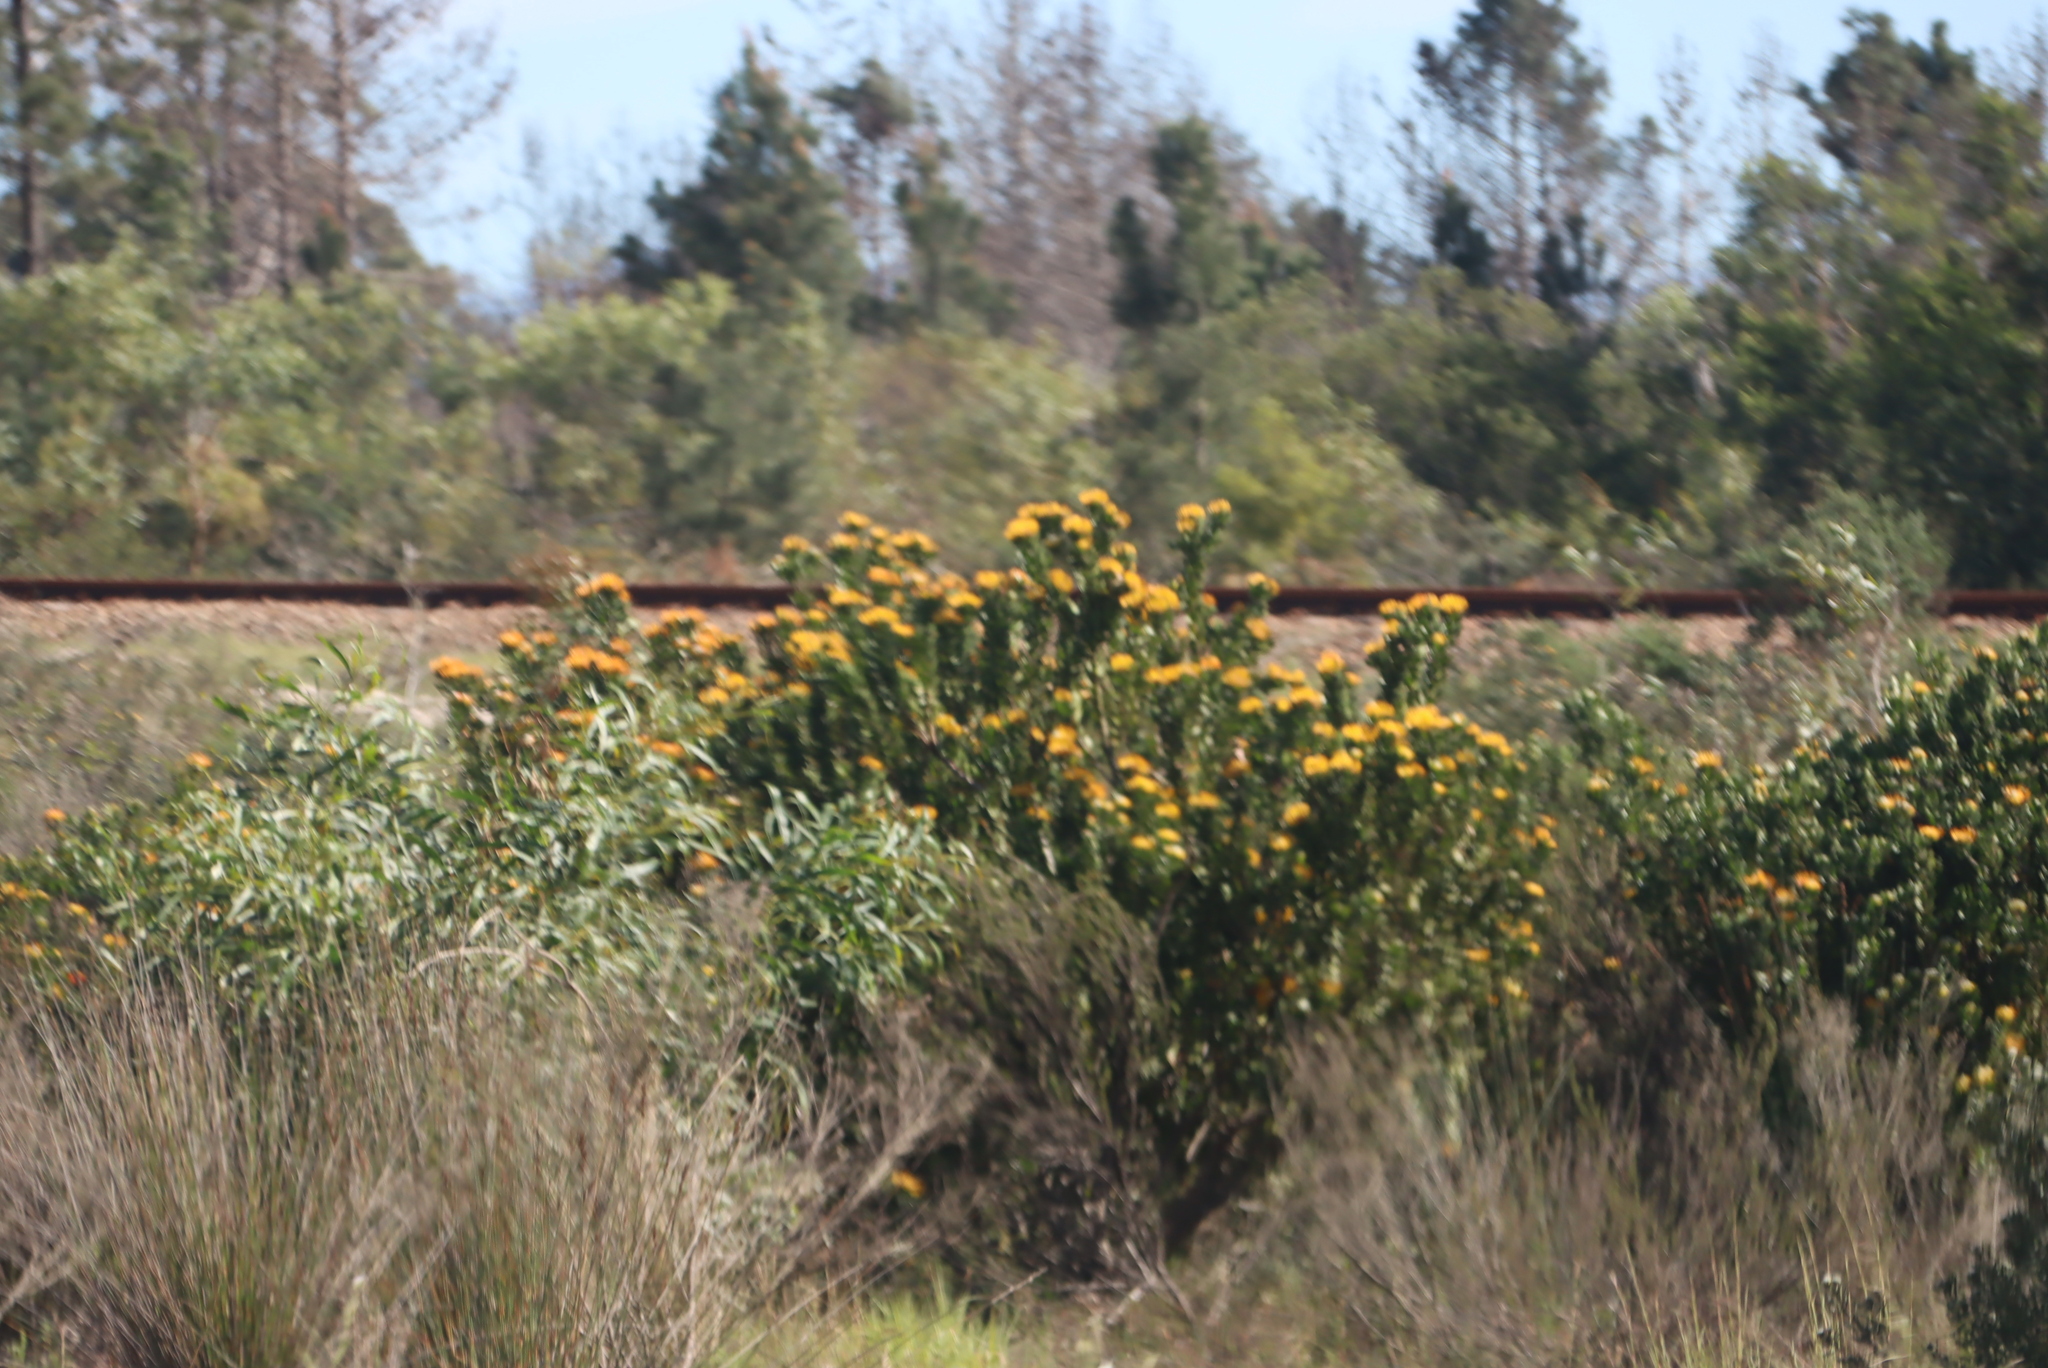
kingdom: Plantae
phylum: Tracheophyta
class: Magnoliopsida
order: Proteales
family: Proteaceae
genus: Leucospermum
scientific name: Leucospermum praecox
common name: Mossel bay pincushion
